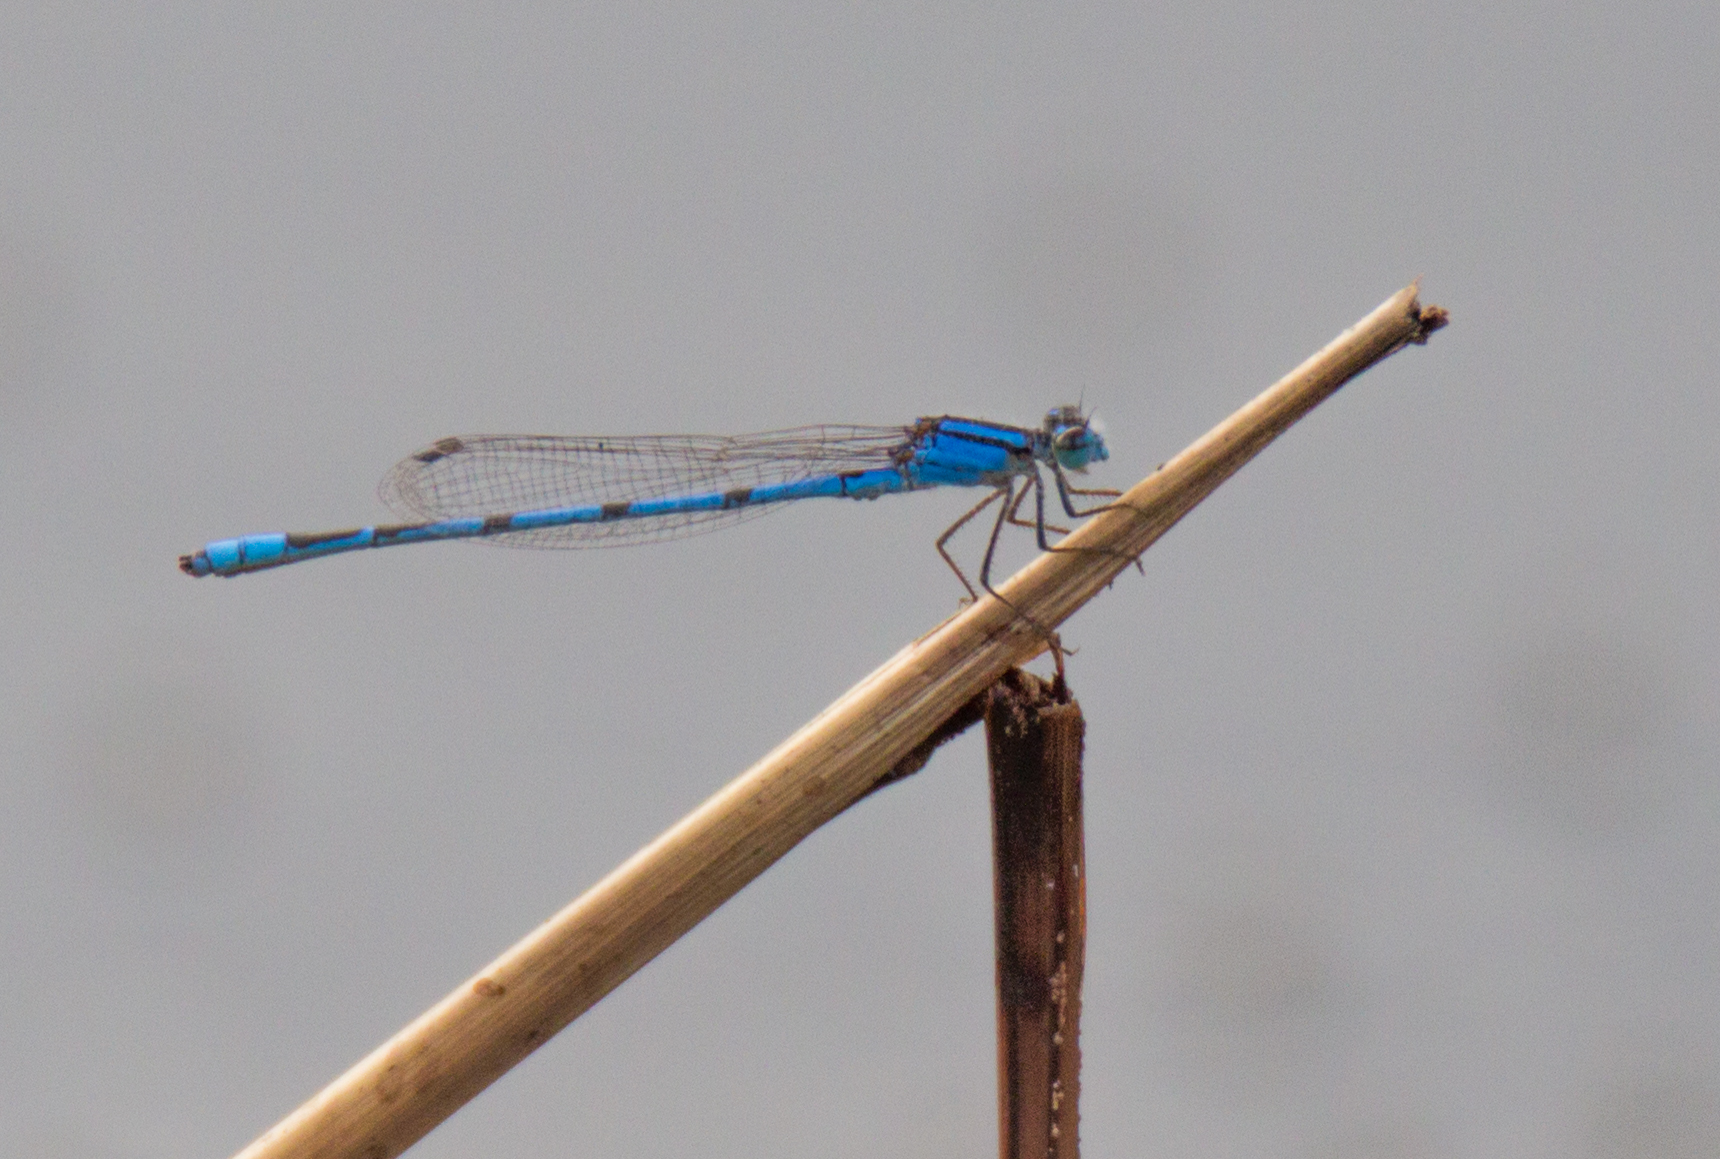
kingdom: Animalia
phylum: Arthropoda
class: Insecta
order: Odonata
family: Coenagrionidae
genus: Enallagma
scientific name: Enallagma civile
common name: Damselfly
